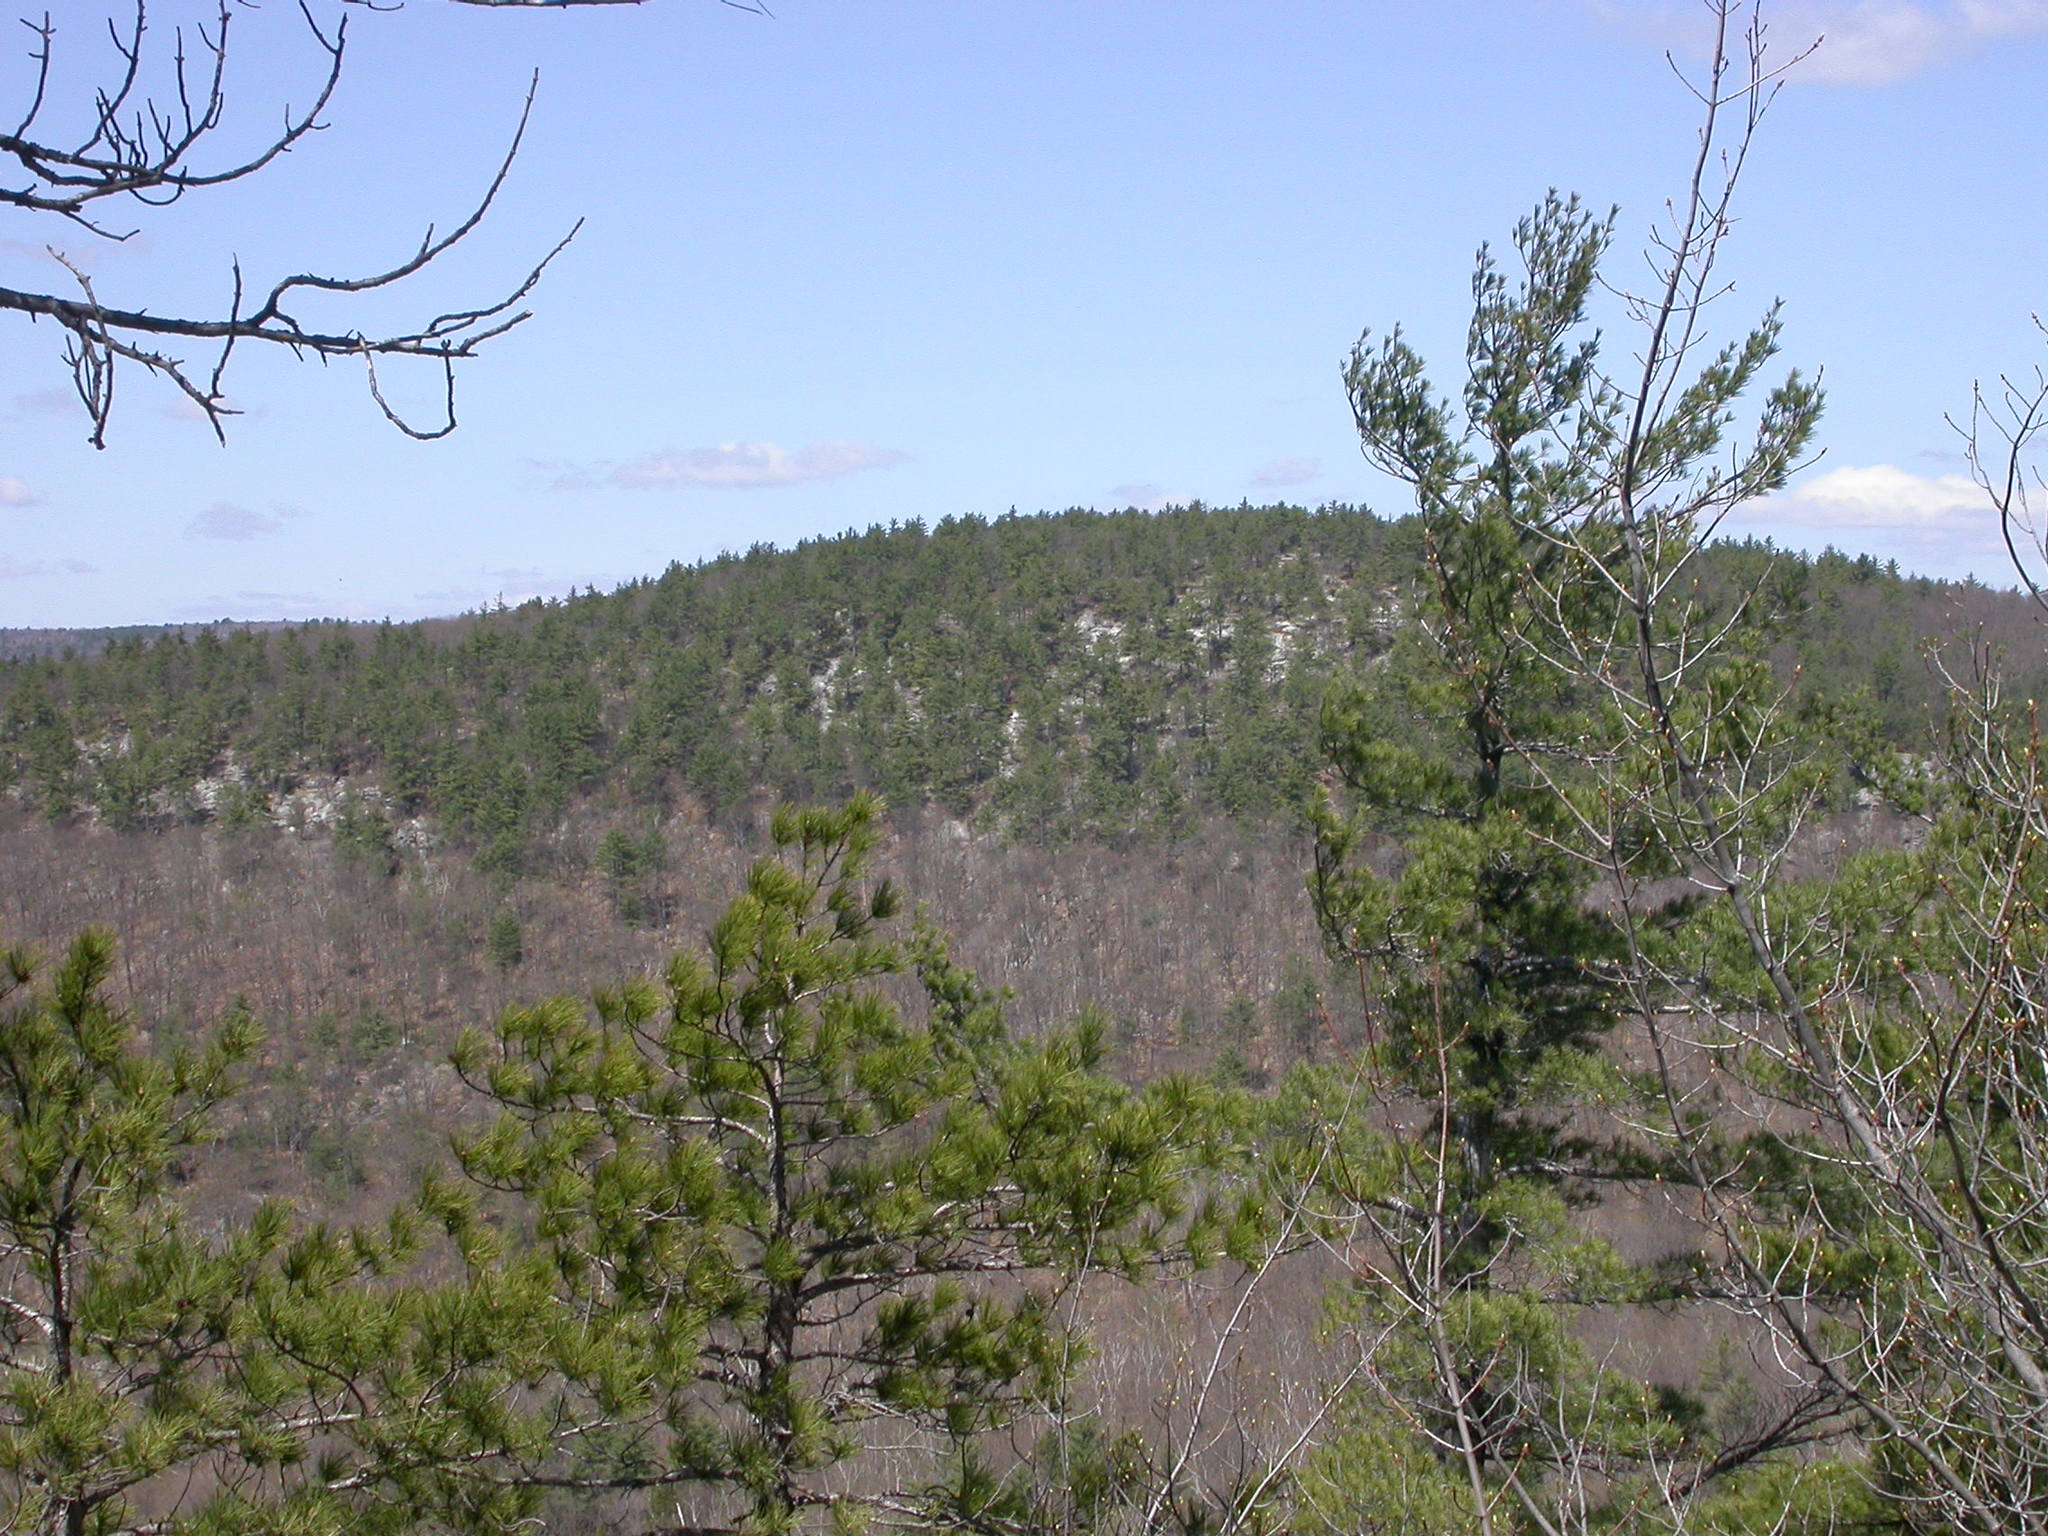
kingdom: Plantae
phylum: Tracheophyta
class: Pinopsida
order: Pinales
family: Pinaceae
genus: Pinus
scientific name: Pinus resinosa
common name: Norway pine
